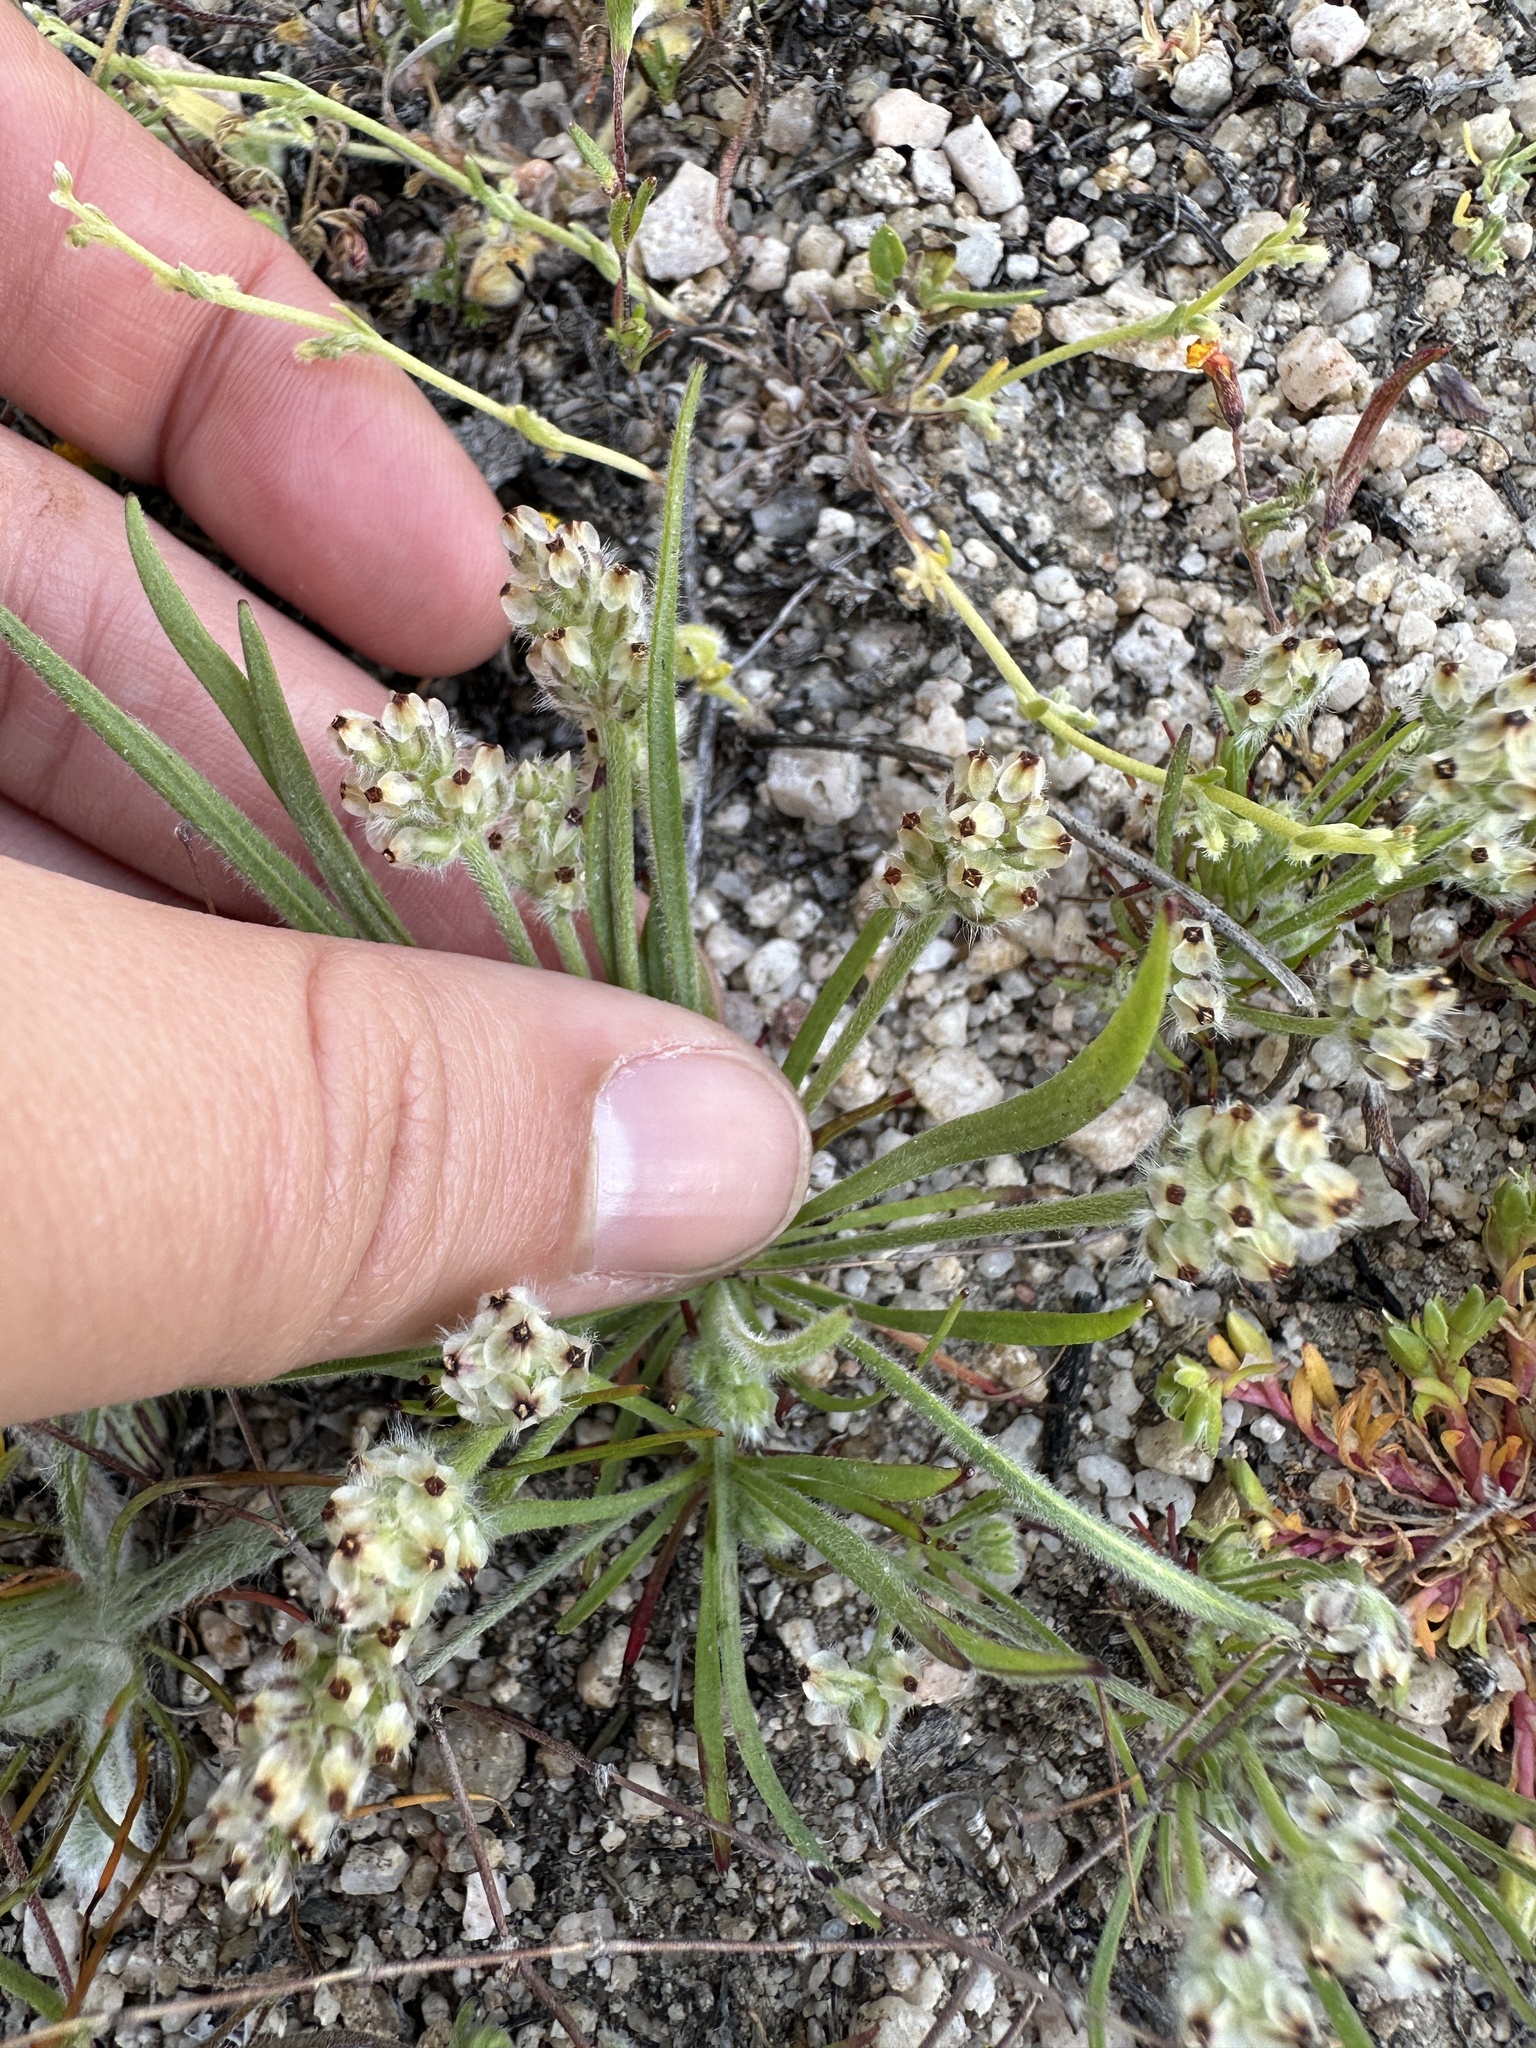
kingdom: Plantae
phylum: Tracheophyta
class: Magnoliopsida
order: Lamiales
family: Plantaginaceae
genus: Plantago
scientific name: Plantago erecta
